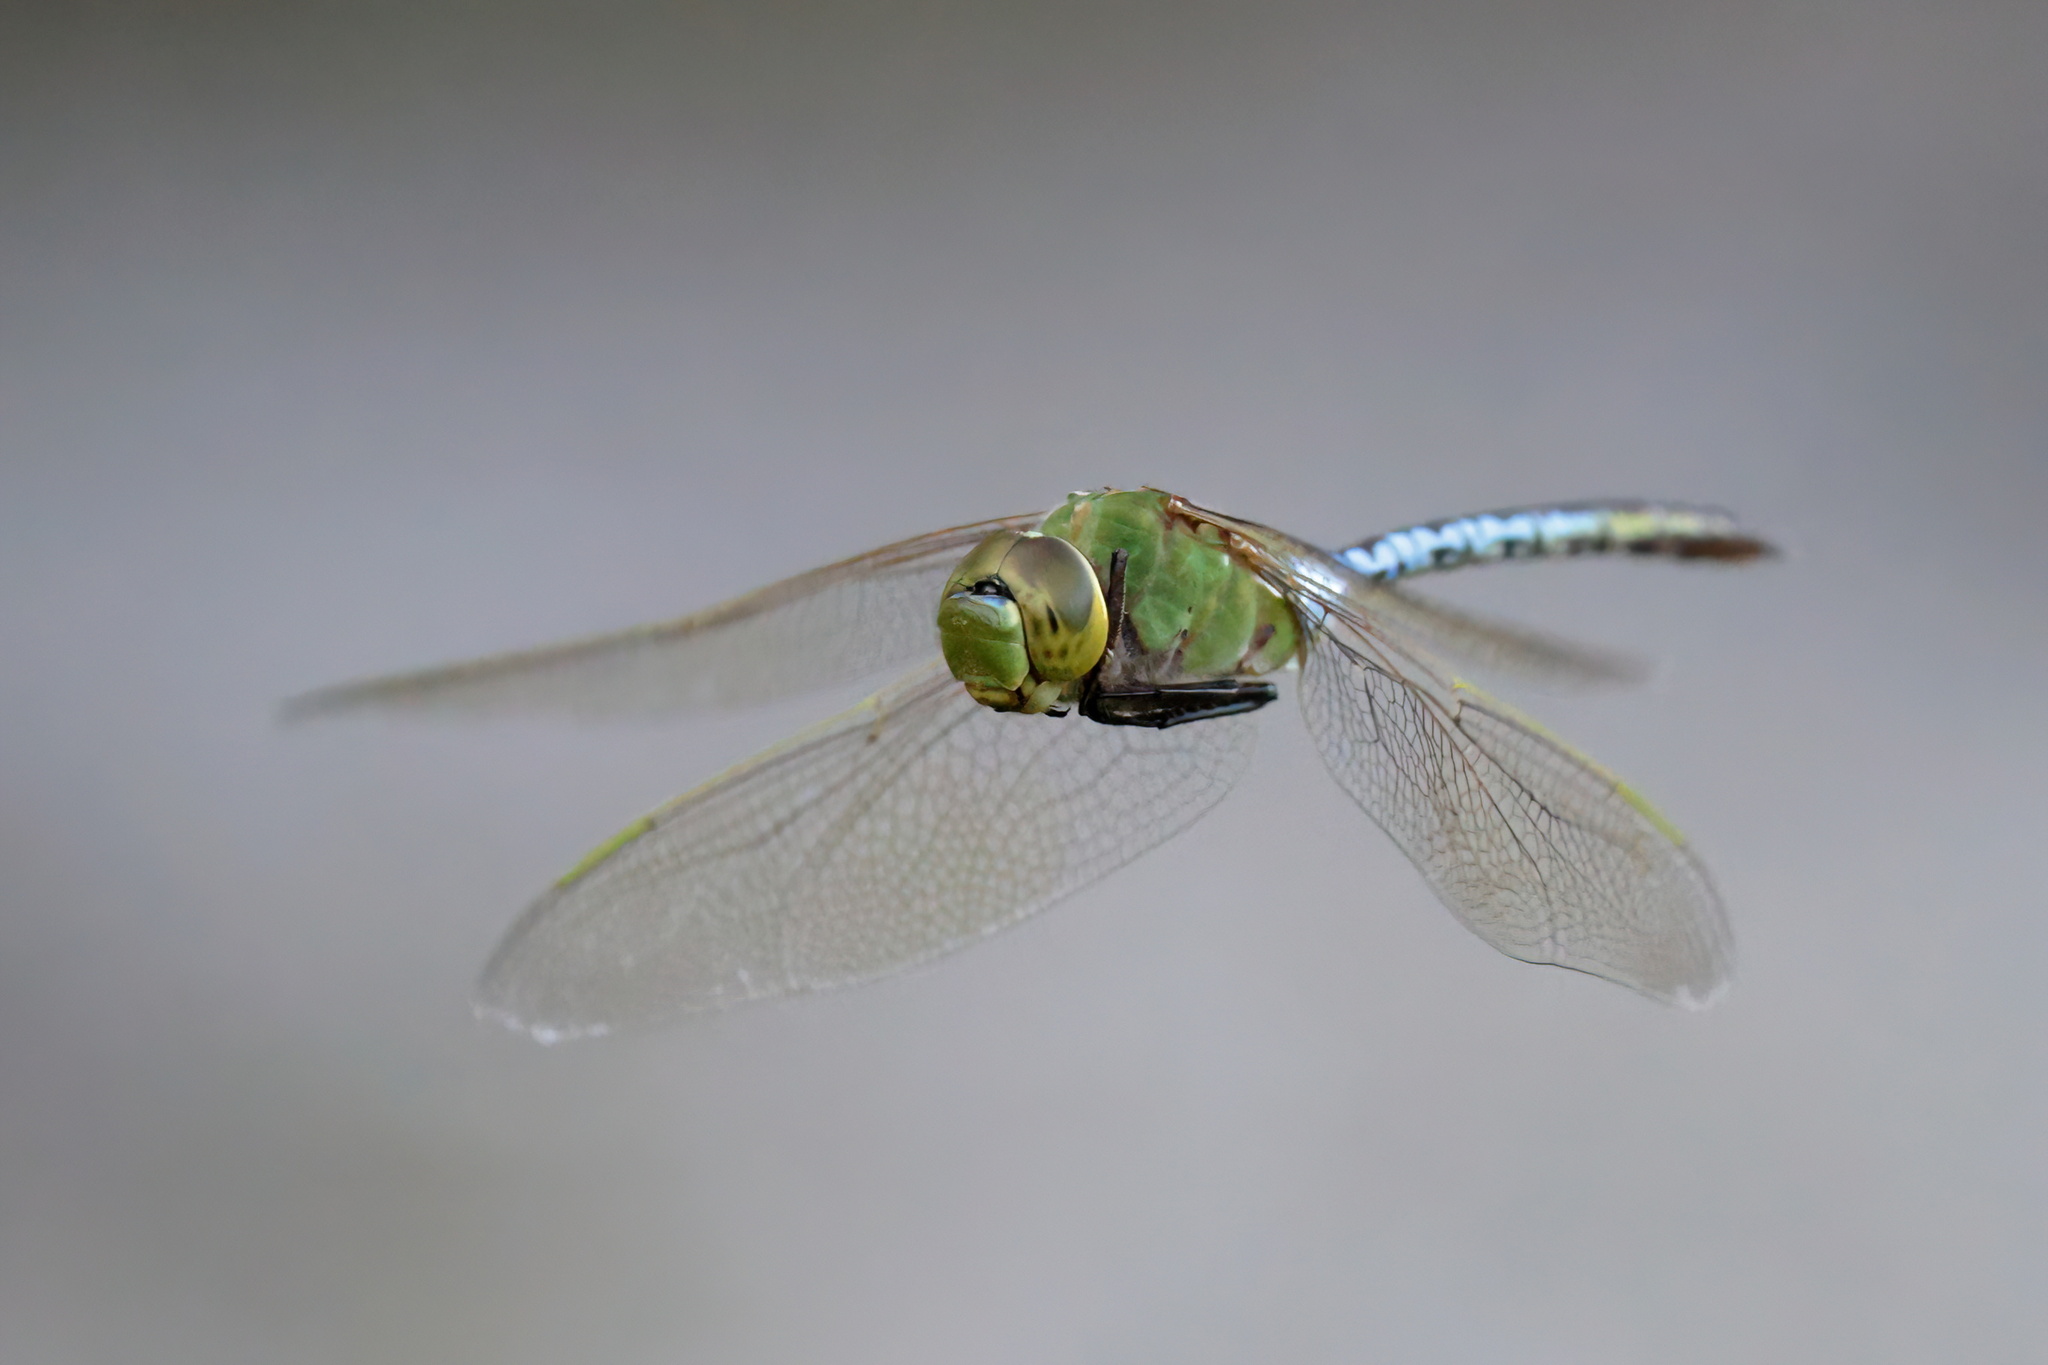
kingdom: Animalia
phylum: Arthropoda
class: Insecta
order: Odonata
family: Aeshnidae
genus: Anax
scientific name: Anax junius
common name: Common green darner
